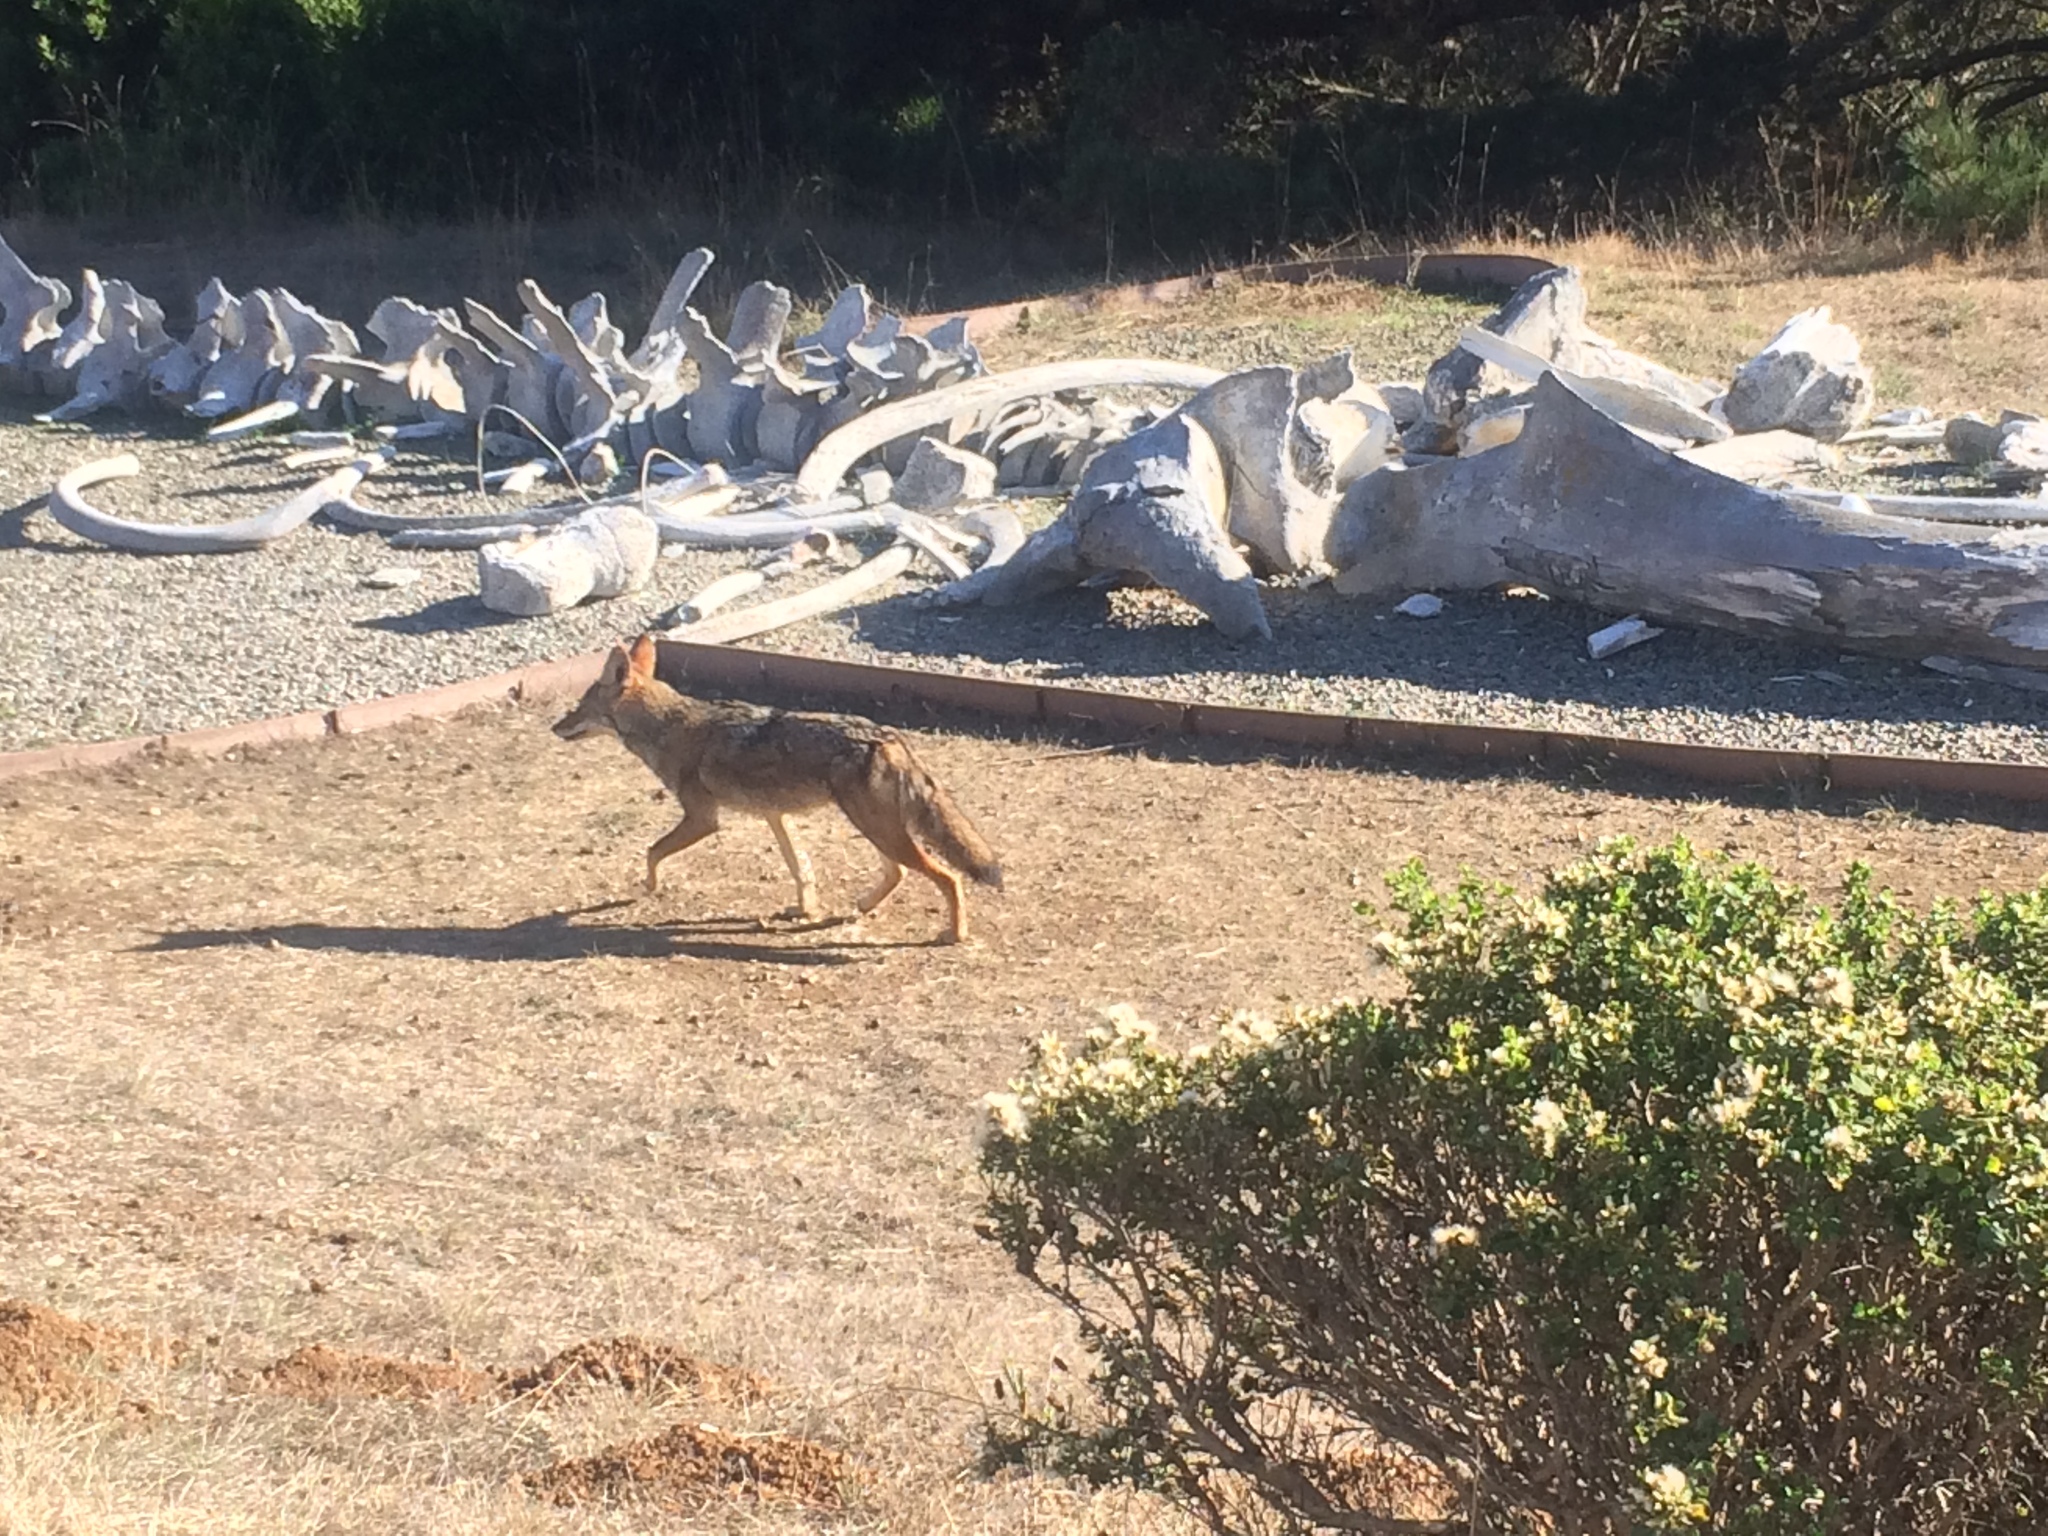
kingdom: Animalia
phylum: Chordata
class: Mammalia
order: Carnivora
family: Canidae
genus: Canis
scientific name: Canis latrans
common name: Coyote
